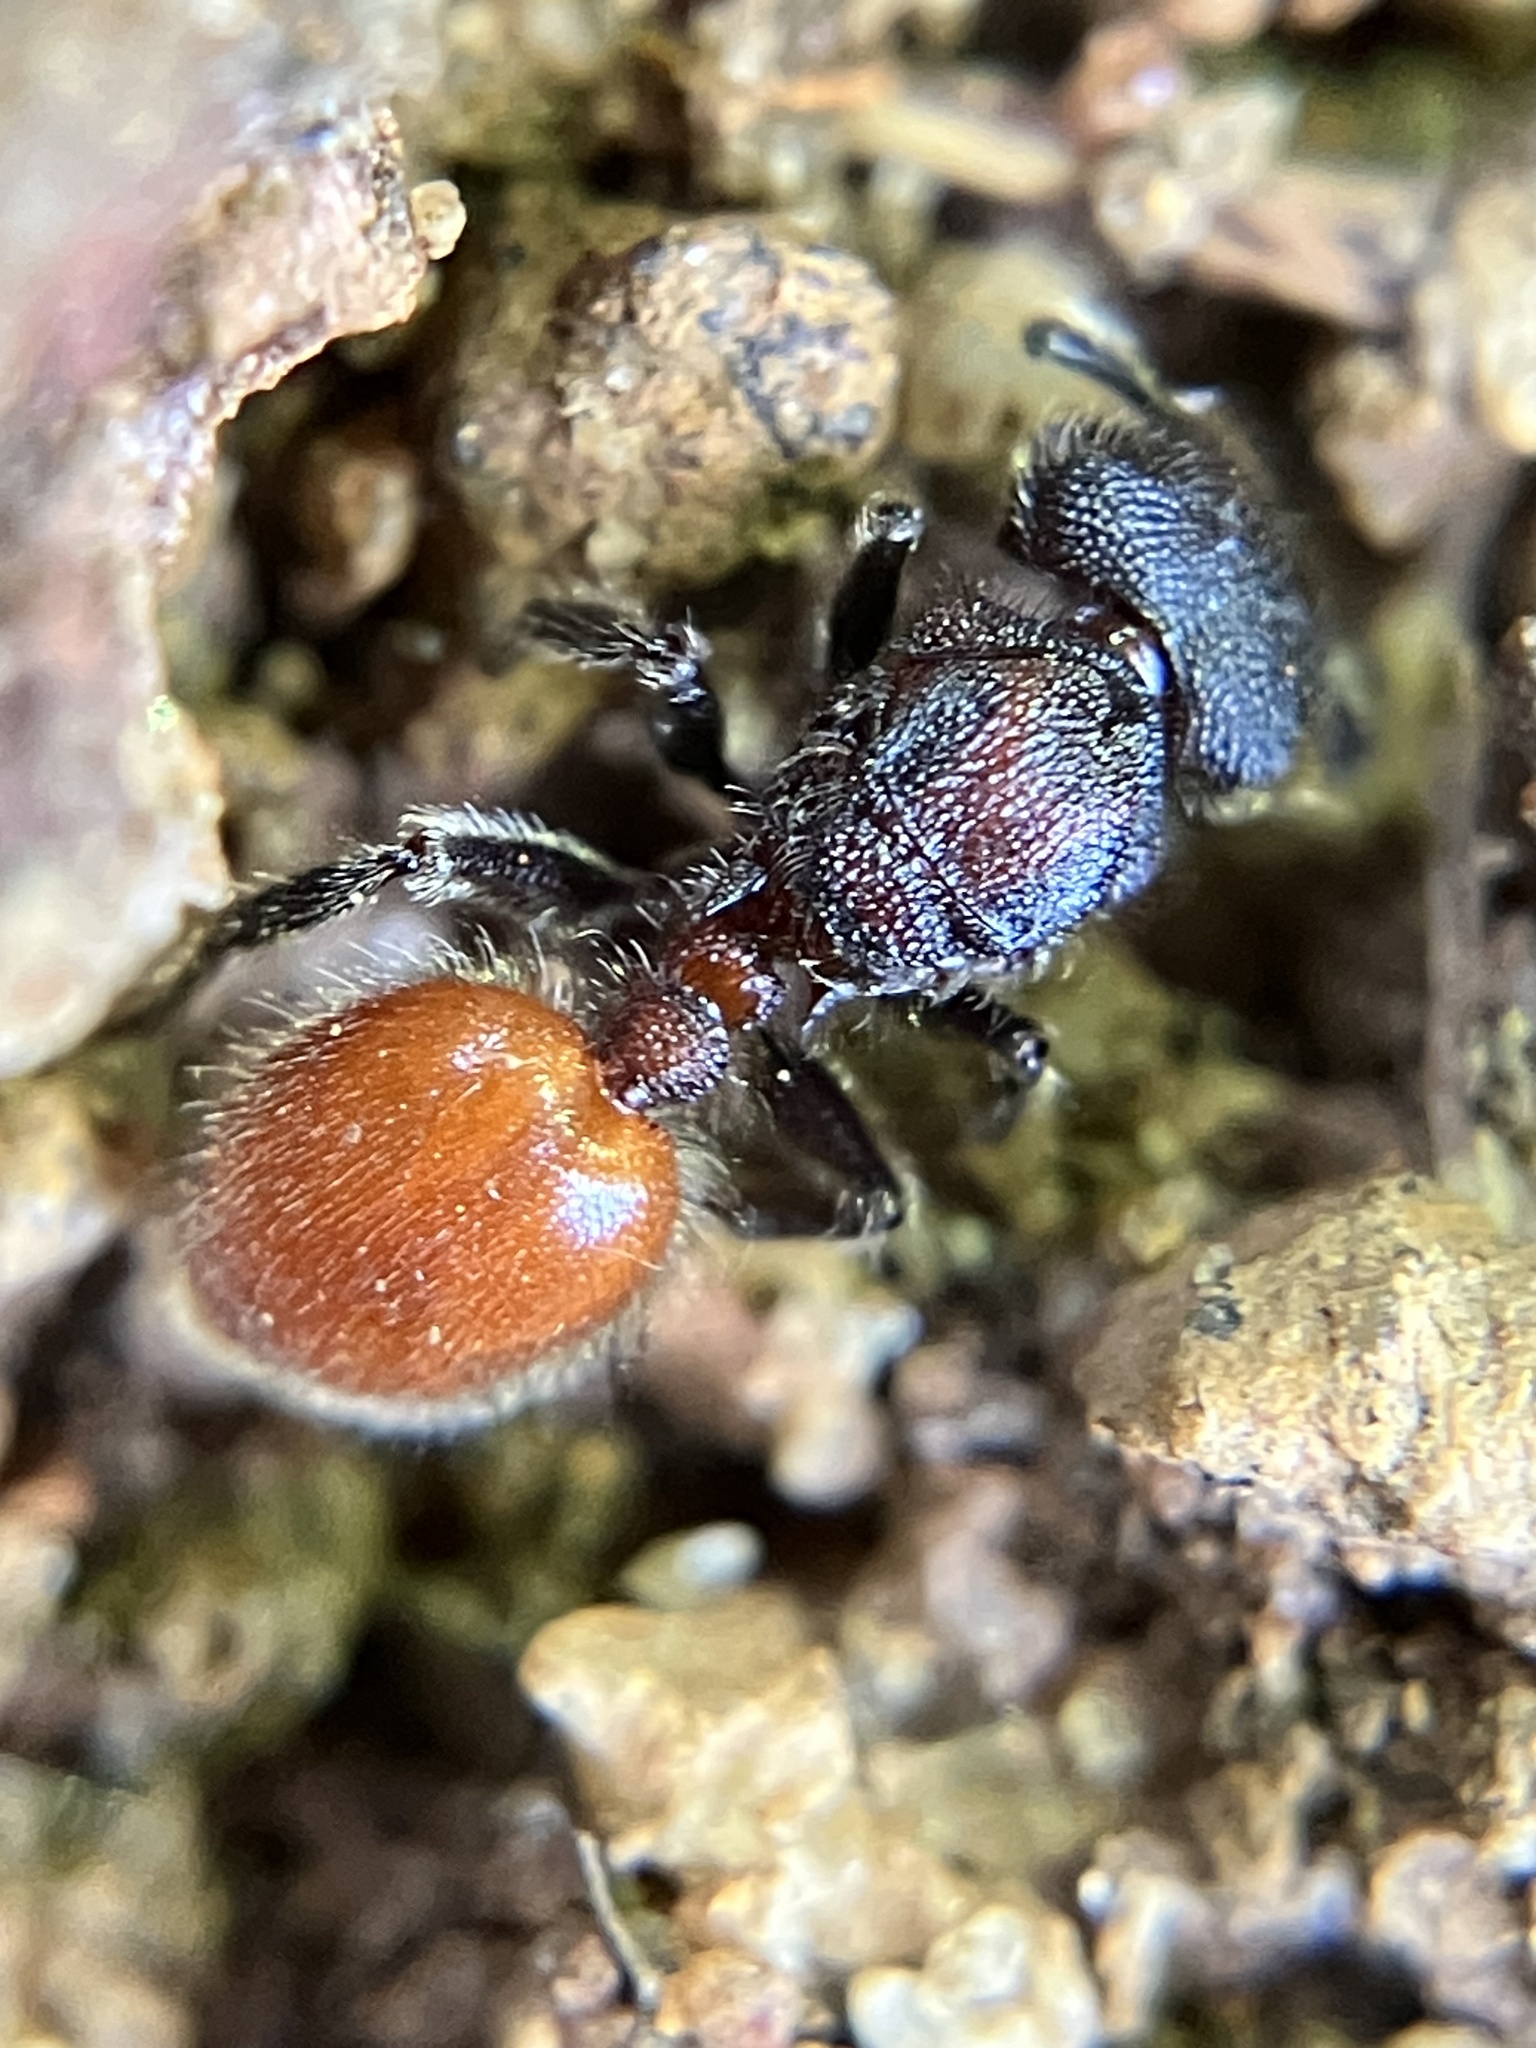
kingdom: Animalia
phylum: Arthropoda
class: Insecta
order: Hymenoptera
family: Formicidae
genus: Meranoplus
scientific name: Meranoplus bellii
